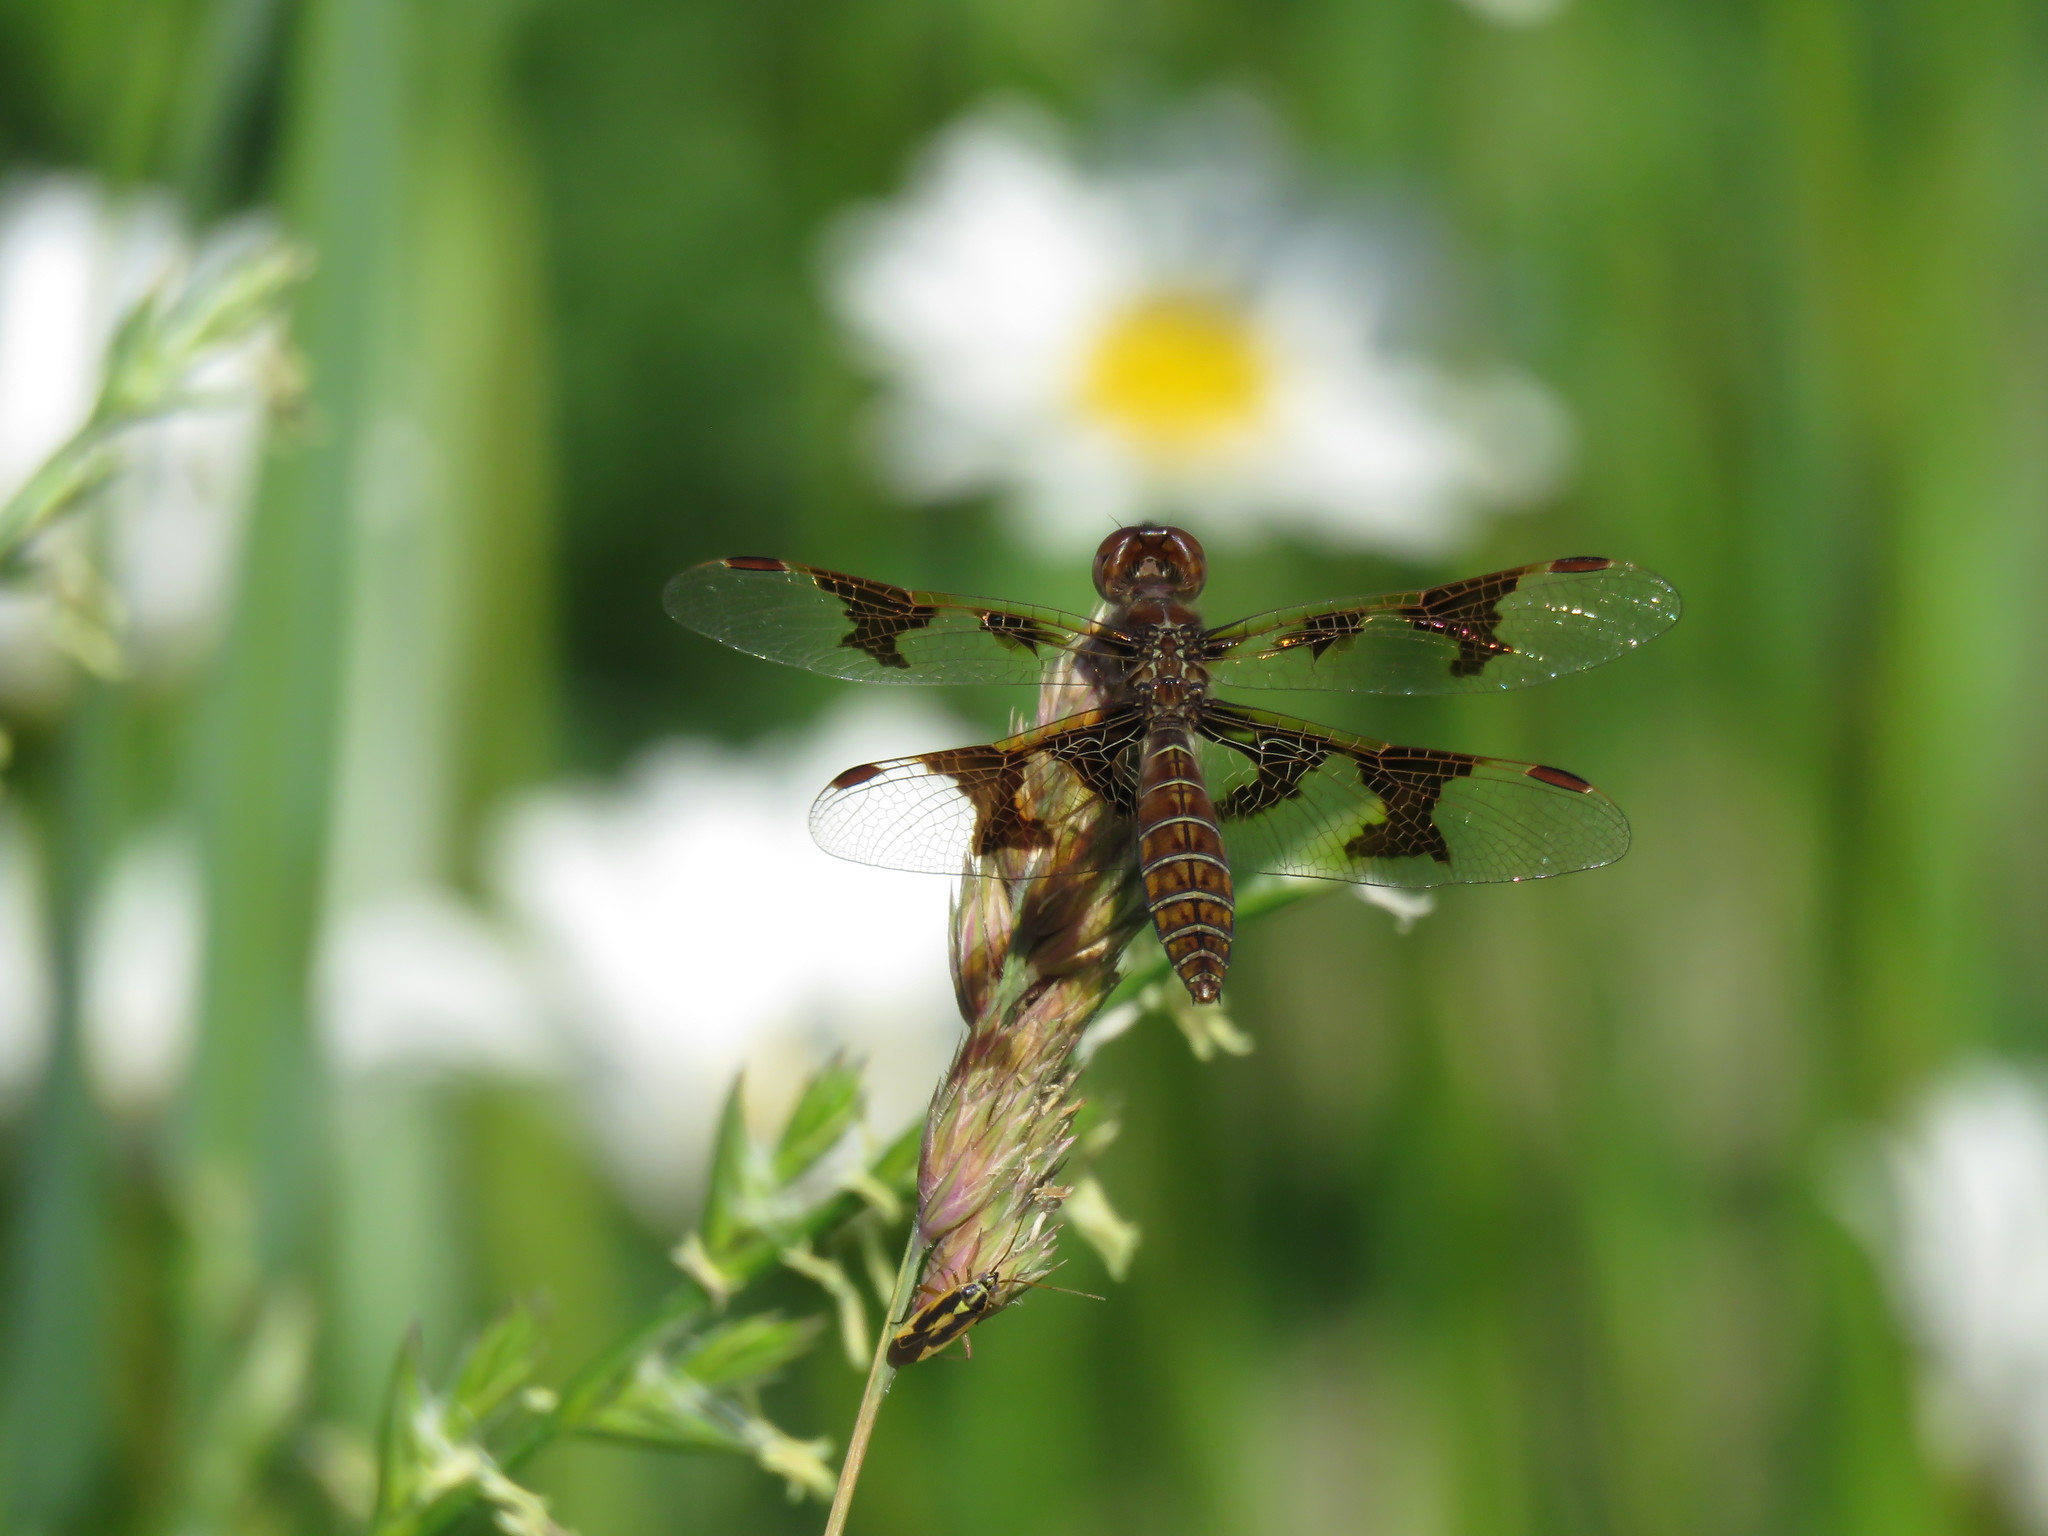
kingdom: Animalia
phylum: Arthropoda
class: Insecta
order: Odonata
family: Libellulidae
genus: Perithemis
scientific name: Perithemis tenera
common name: Eastern amberwing
